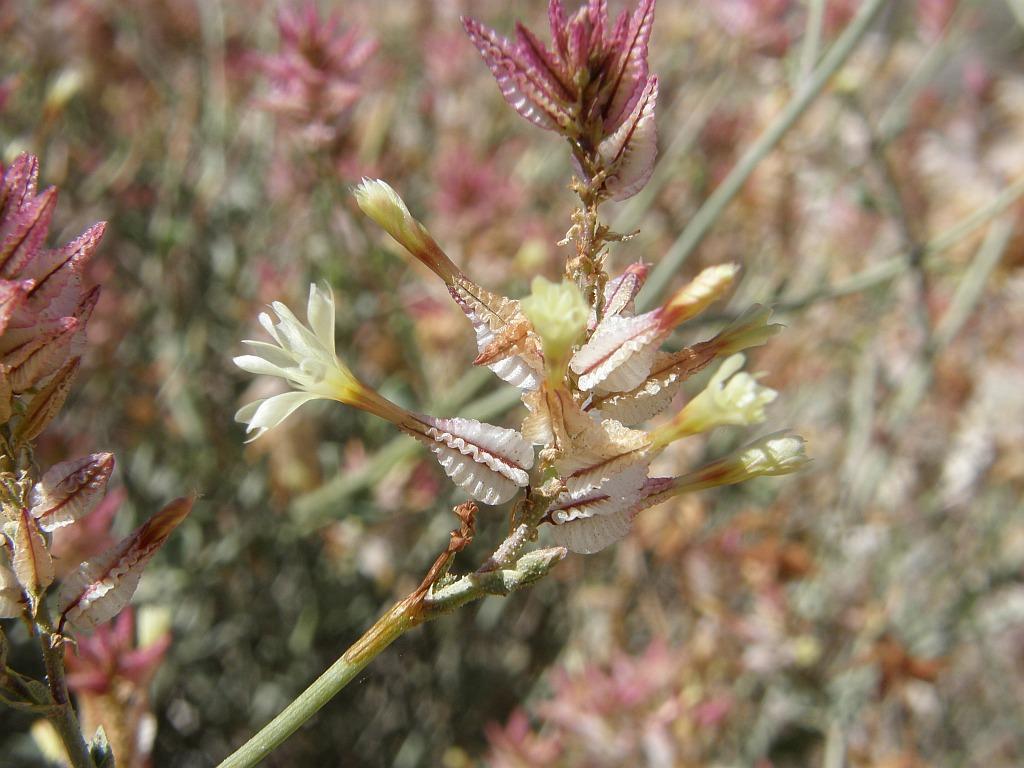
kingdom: Plantae
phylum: Tracheophyta
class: Magnoliopsida
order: Caryophyllales
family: Plumbaginaceae
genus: Dyerophytum
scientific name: Dyerophytum africanum
